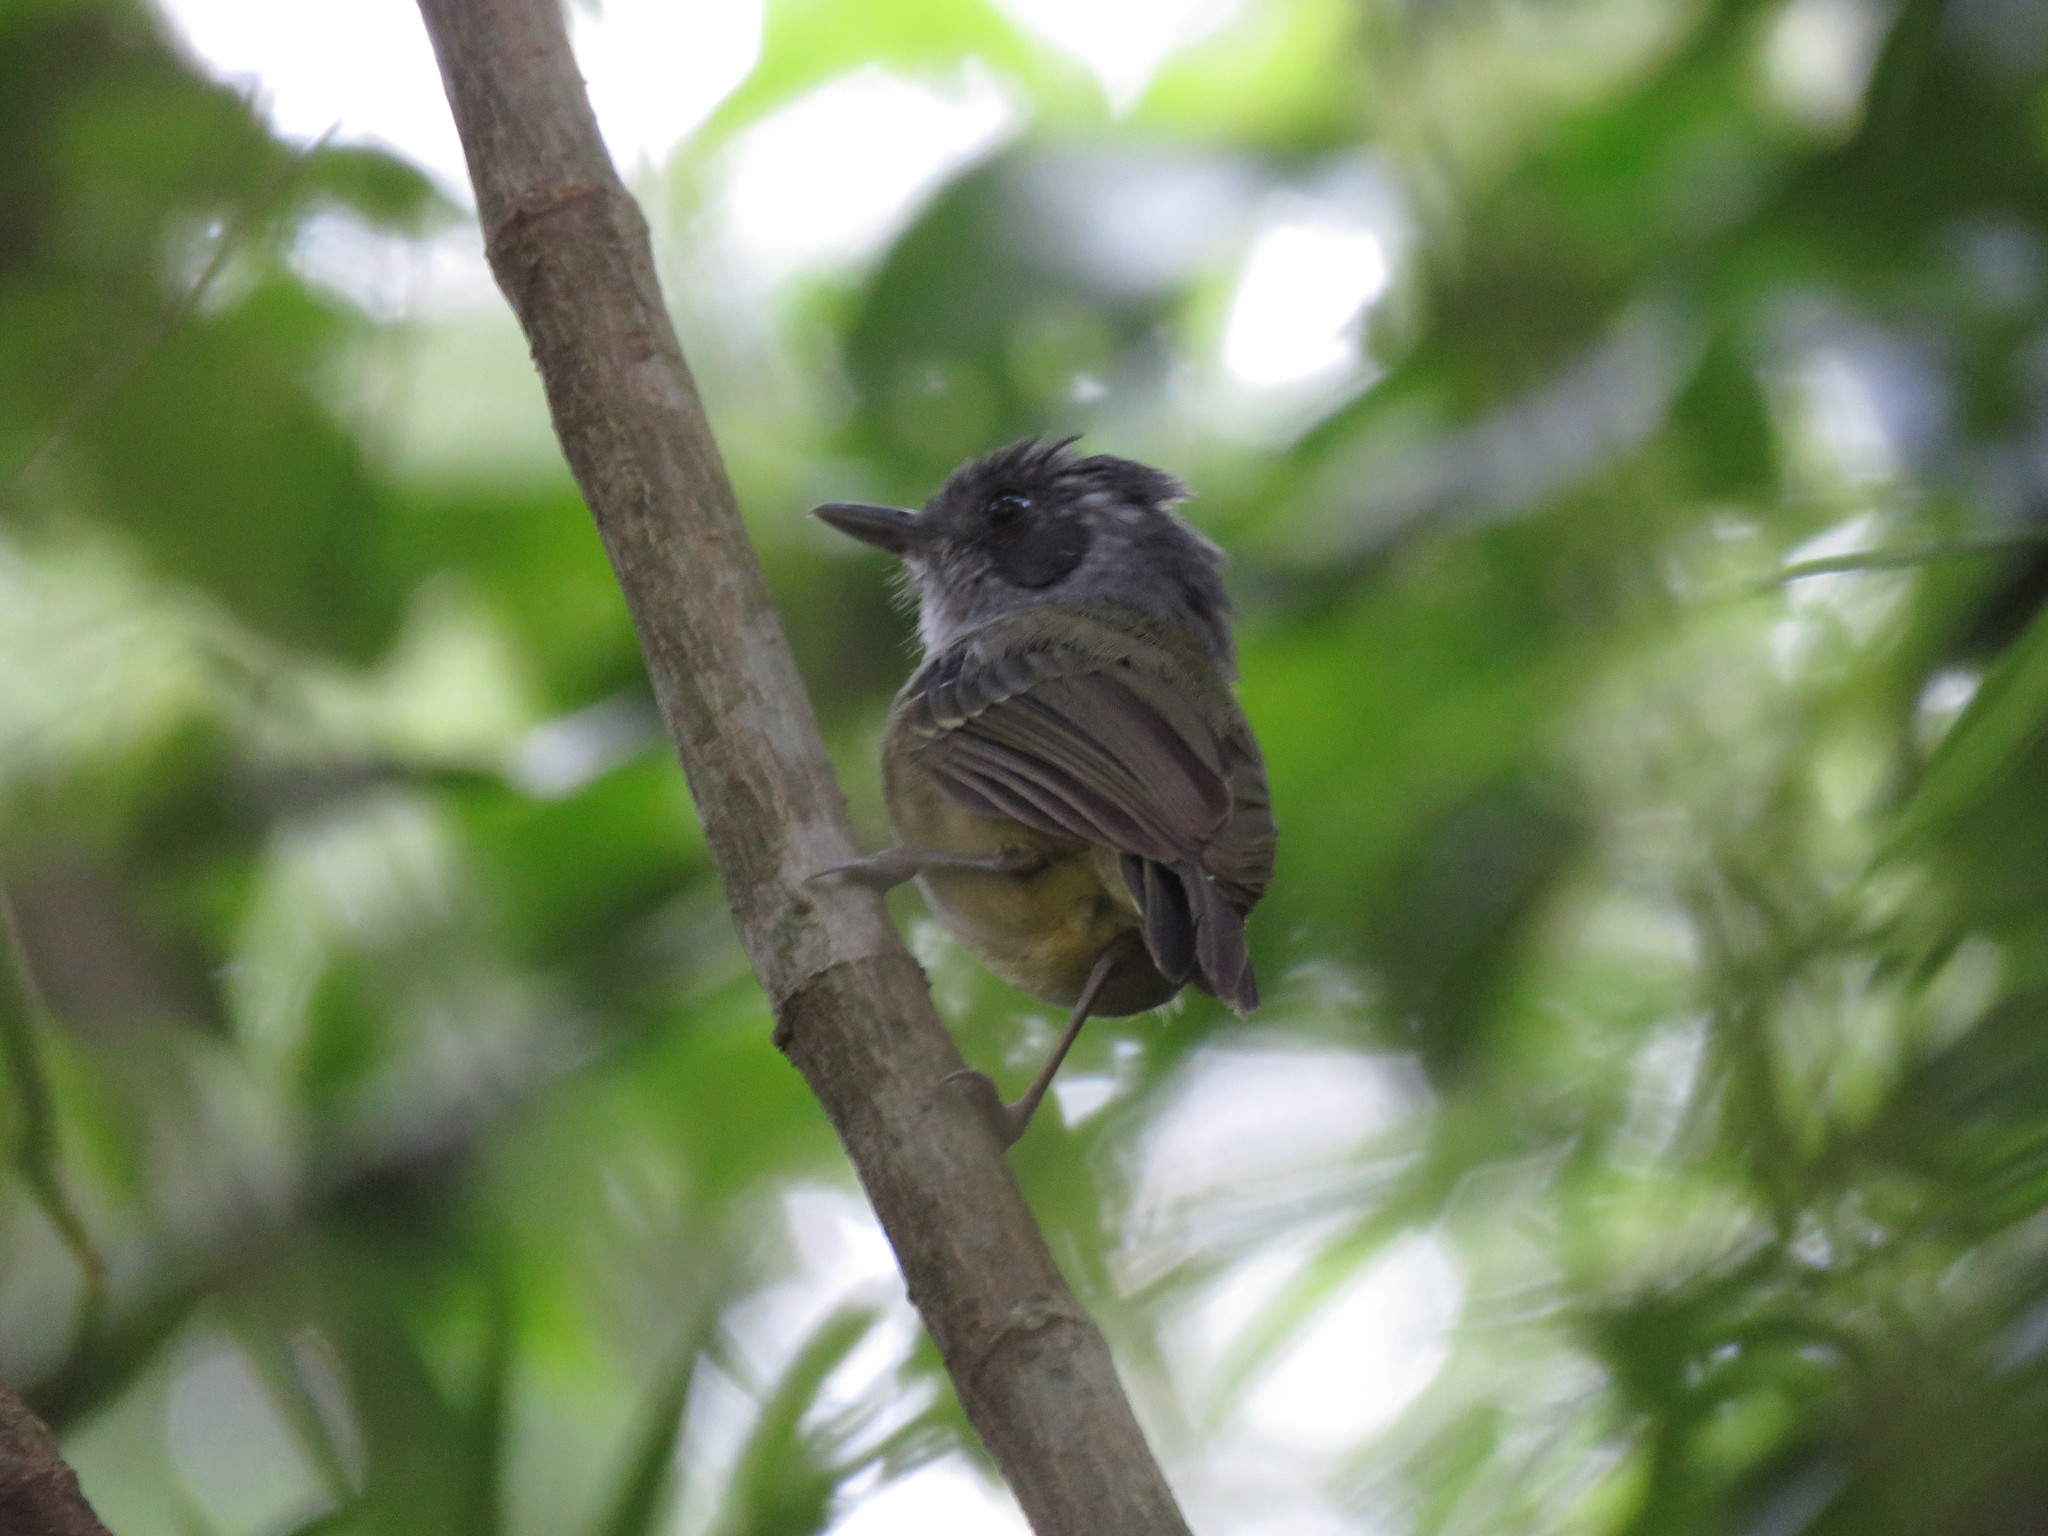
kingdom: Animalia
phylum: Chordata
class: Aves
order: Passeriformes
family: Thamnophilidae
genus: Dysithamnus
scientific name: Dysithamnus mentalis
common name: Plain antvireo
